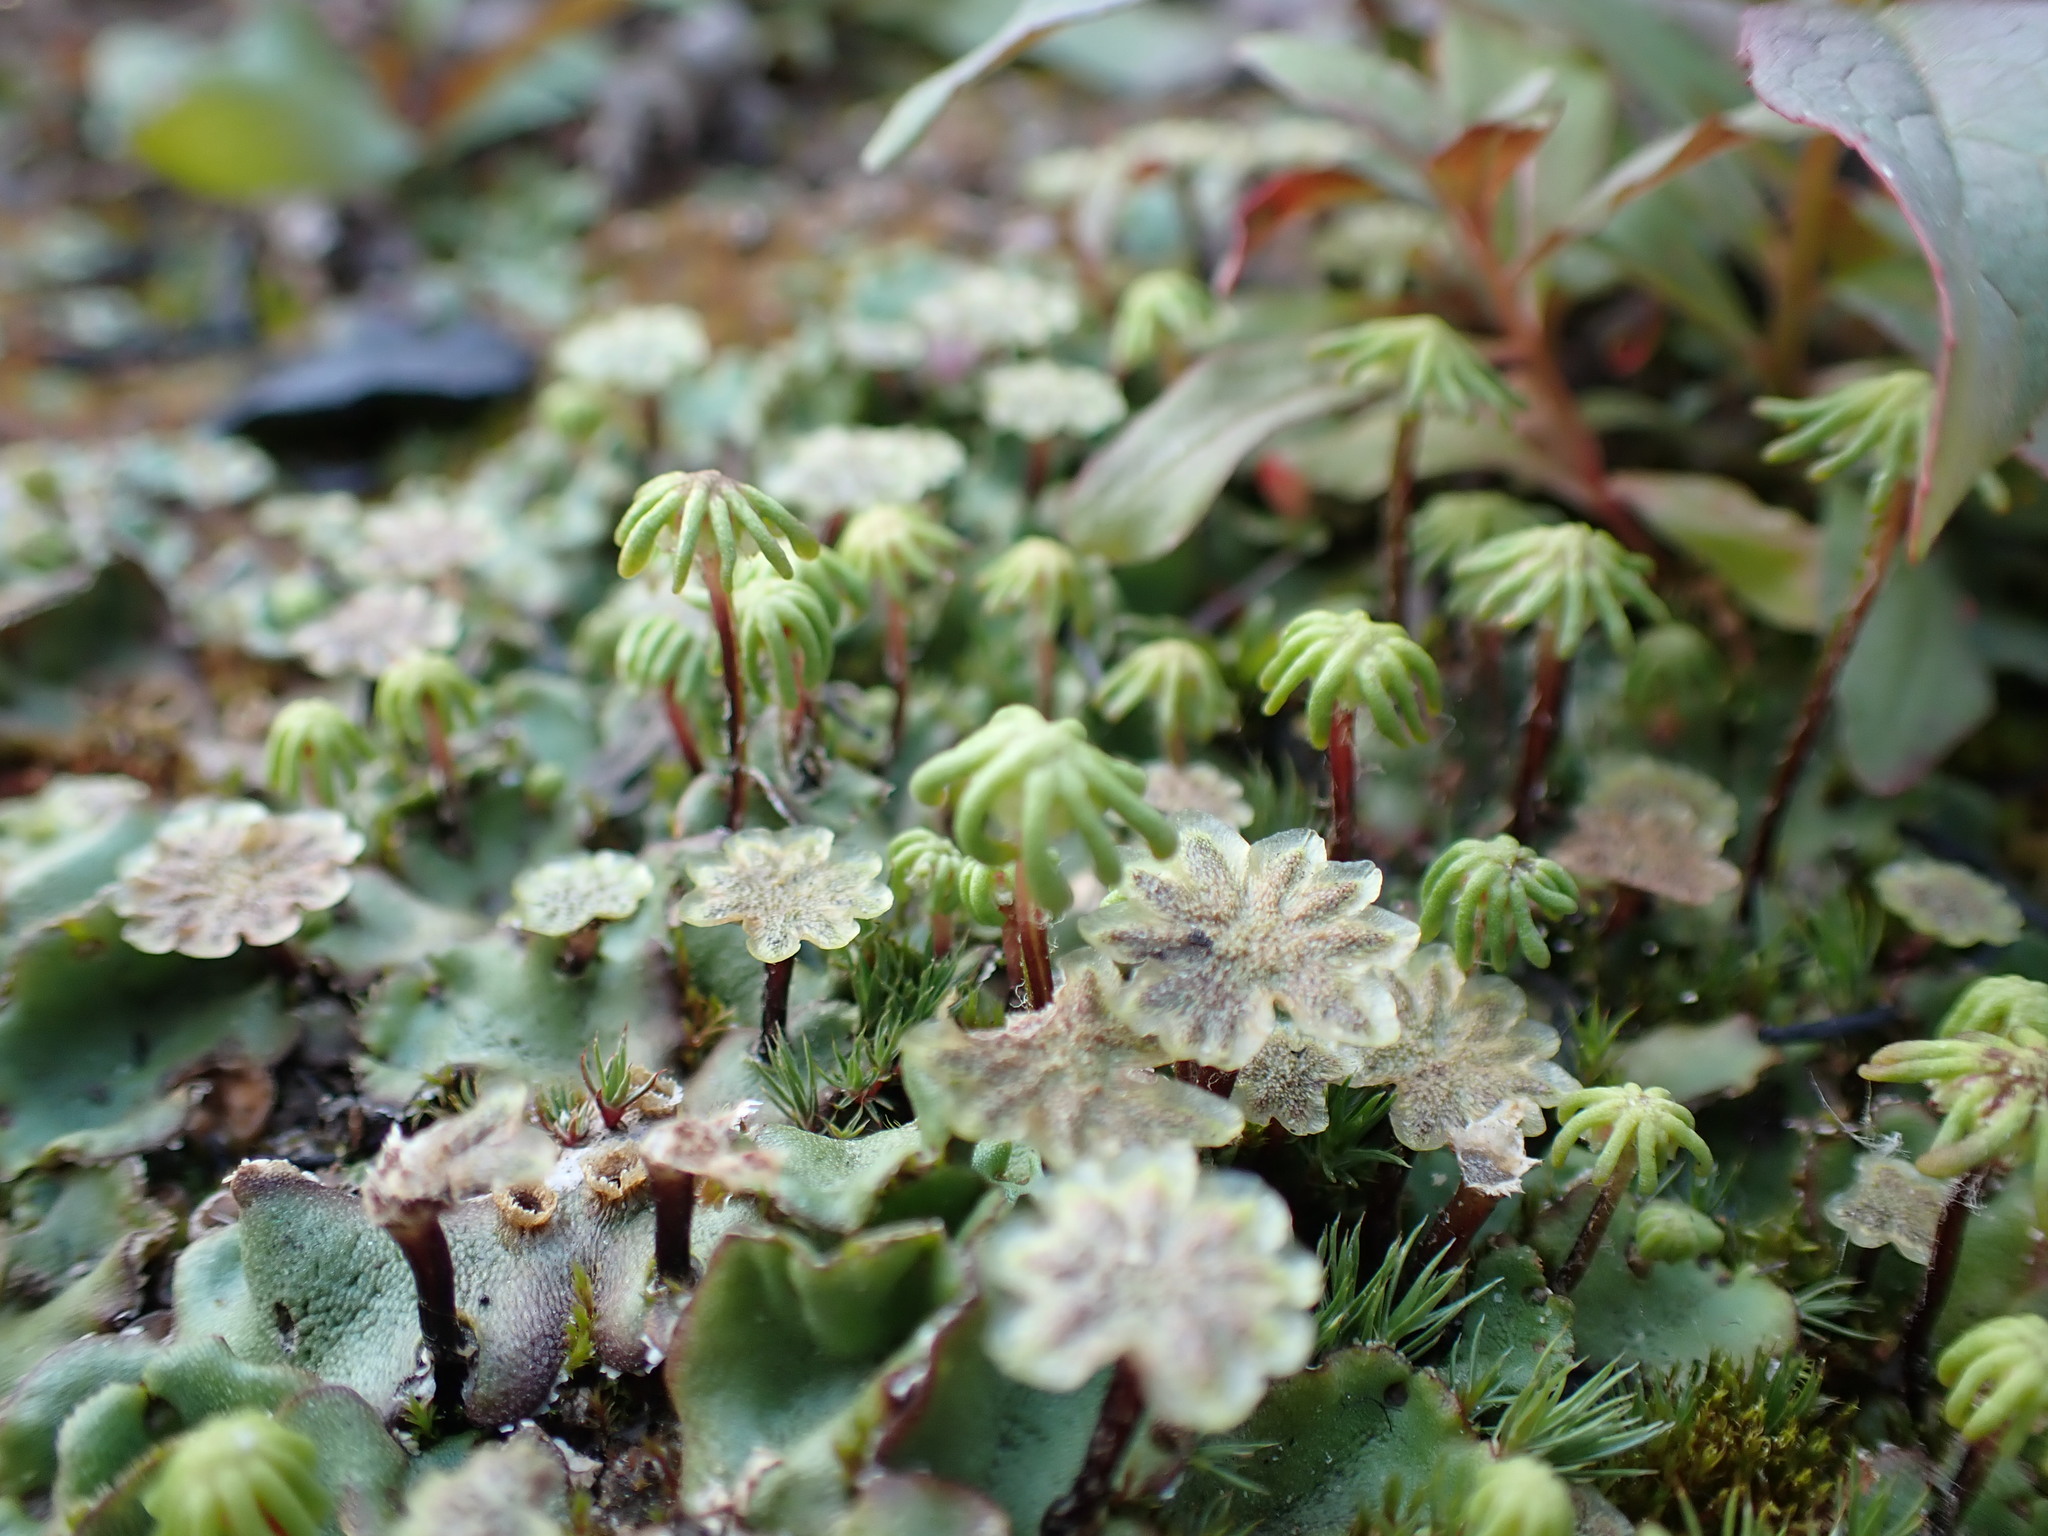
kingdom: Plantae
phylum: Marchantiophyta
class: Marchantiopsida
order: Marchantiales
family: Marchantiaceae
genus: Marchantia
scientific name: Marchantia polymorpha
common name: Common liverwort
